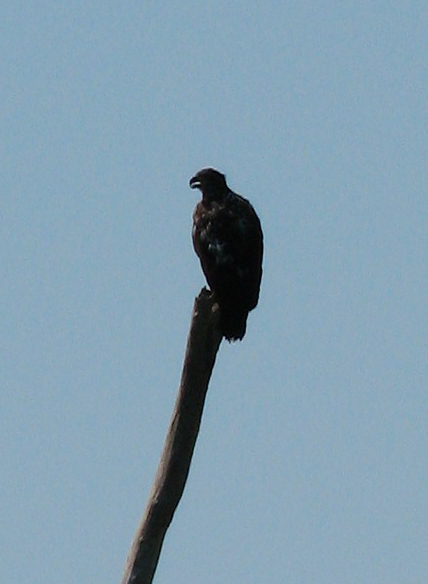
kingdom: Animalia
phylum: Chordata
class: Aves
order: Accipitriformes
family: Accipitridae
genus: Haliaeetus
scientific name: Haliaeetus leucocephalus
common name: Bald eagle
